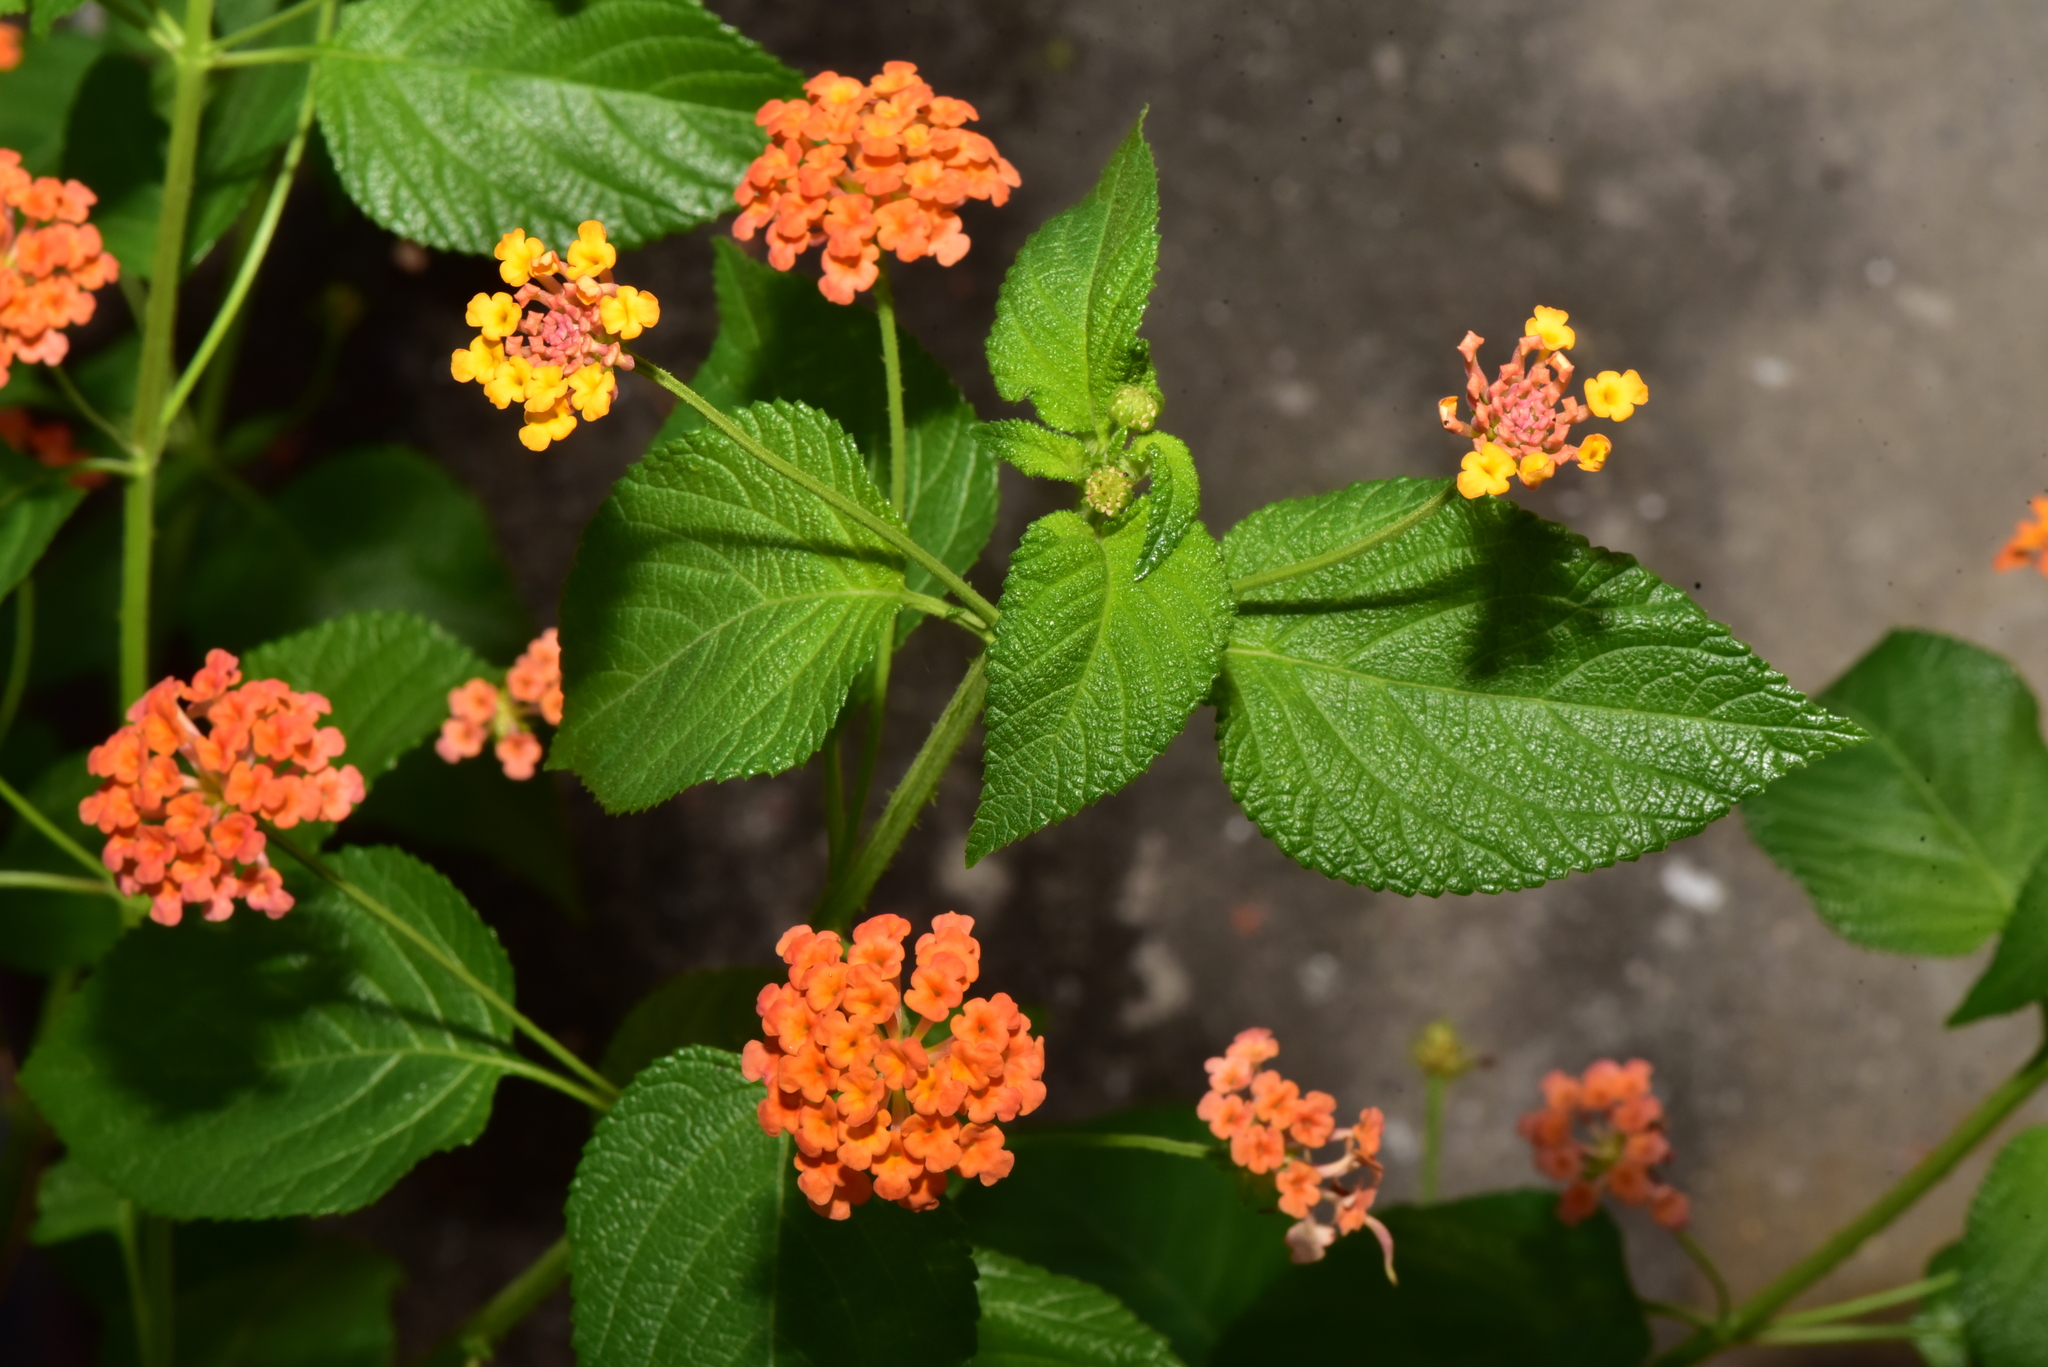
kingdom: Plantae
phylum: Tracheophyta
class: Magnoliopsida
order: Lamiales
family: Verbenaceae
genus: Lantana
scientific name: Lantana camara
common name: Lantana
